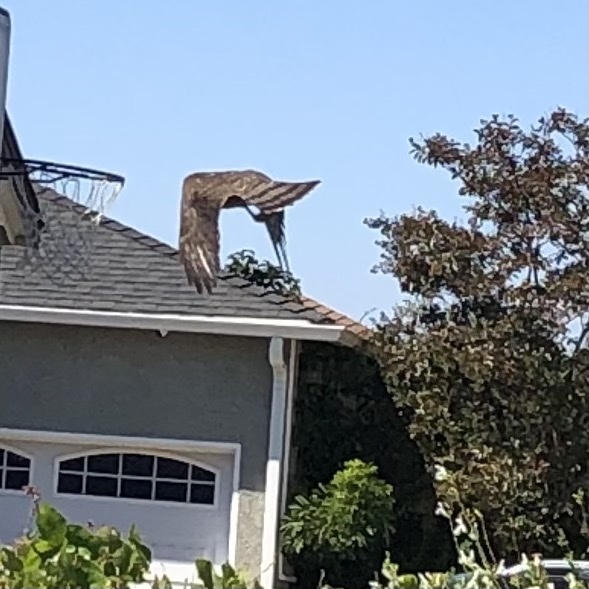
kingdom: Animalia
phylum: Chordata
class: Aves
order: Accipitriformes
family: Accipitridae
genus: Accipiter
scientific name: Accipiter cooperii
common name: Cooper's hawk
